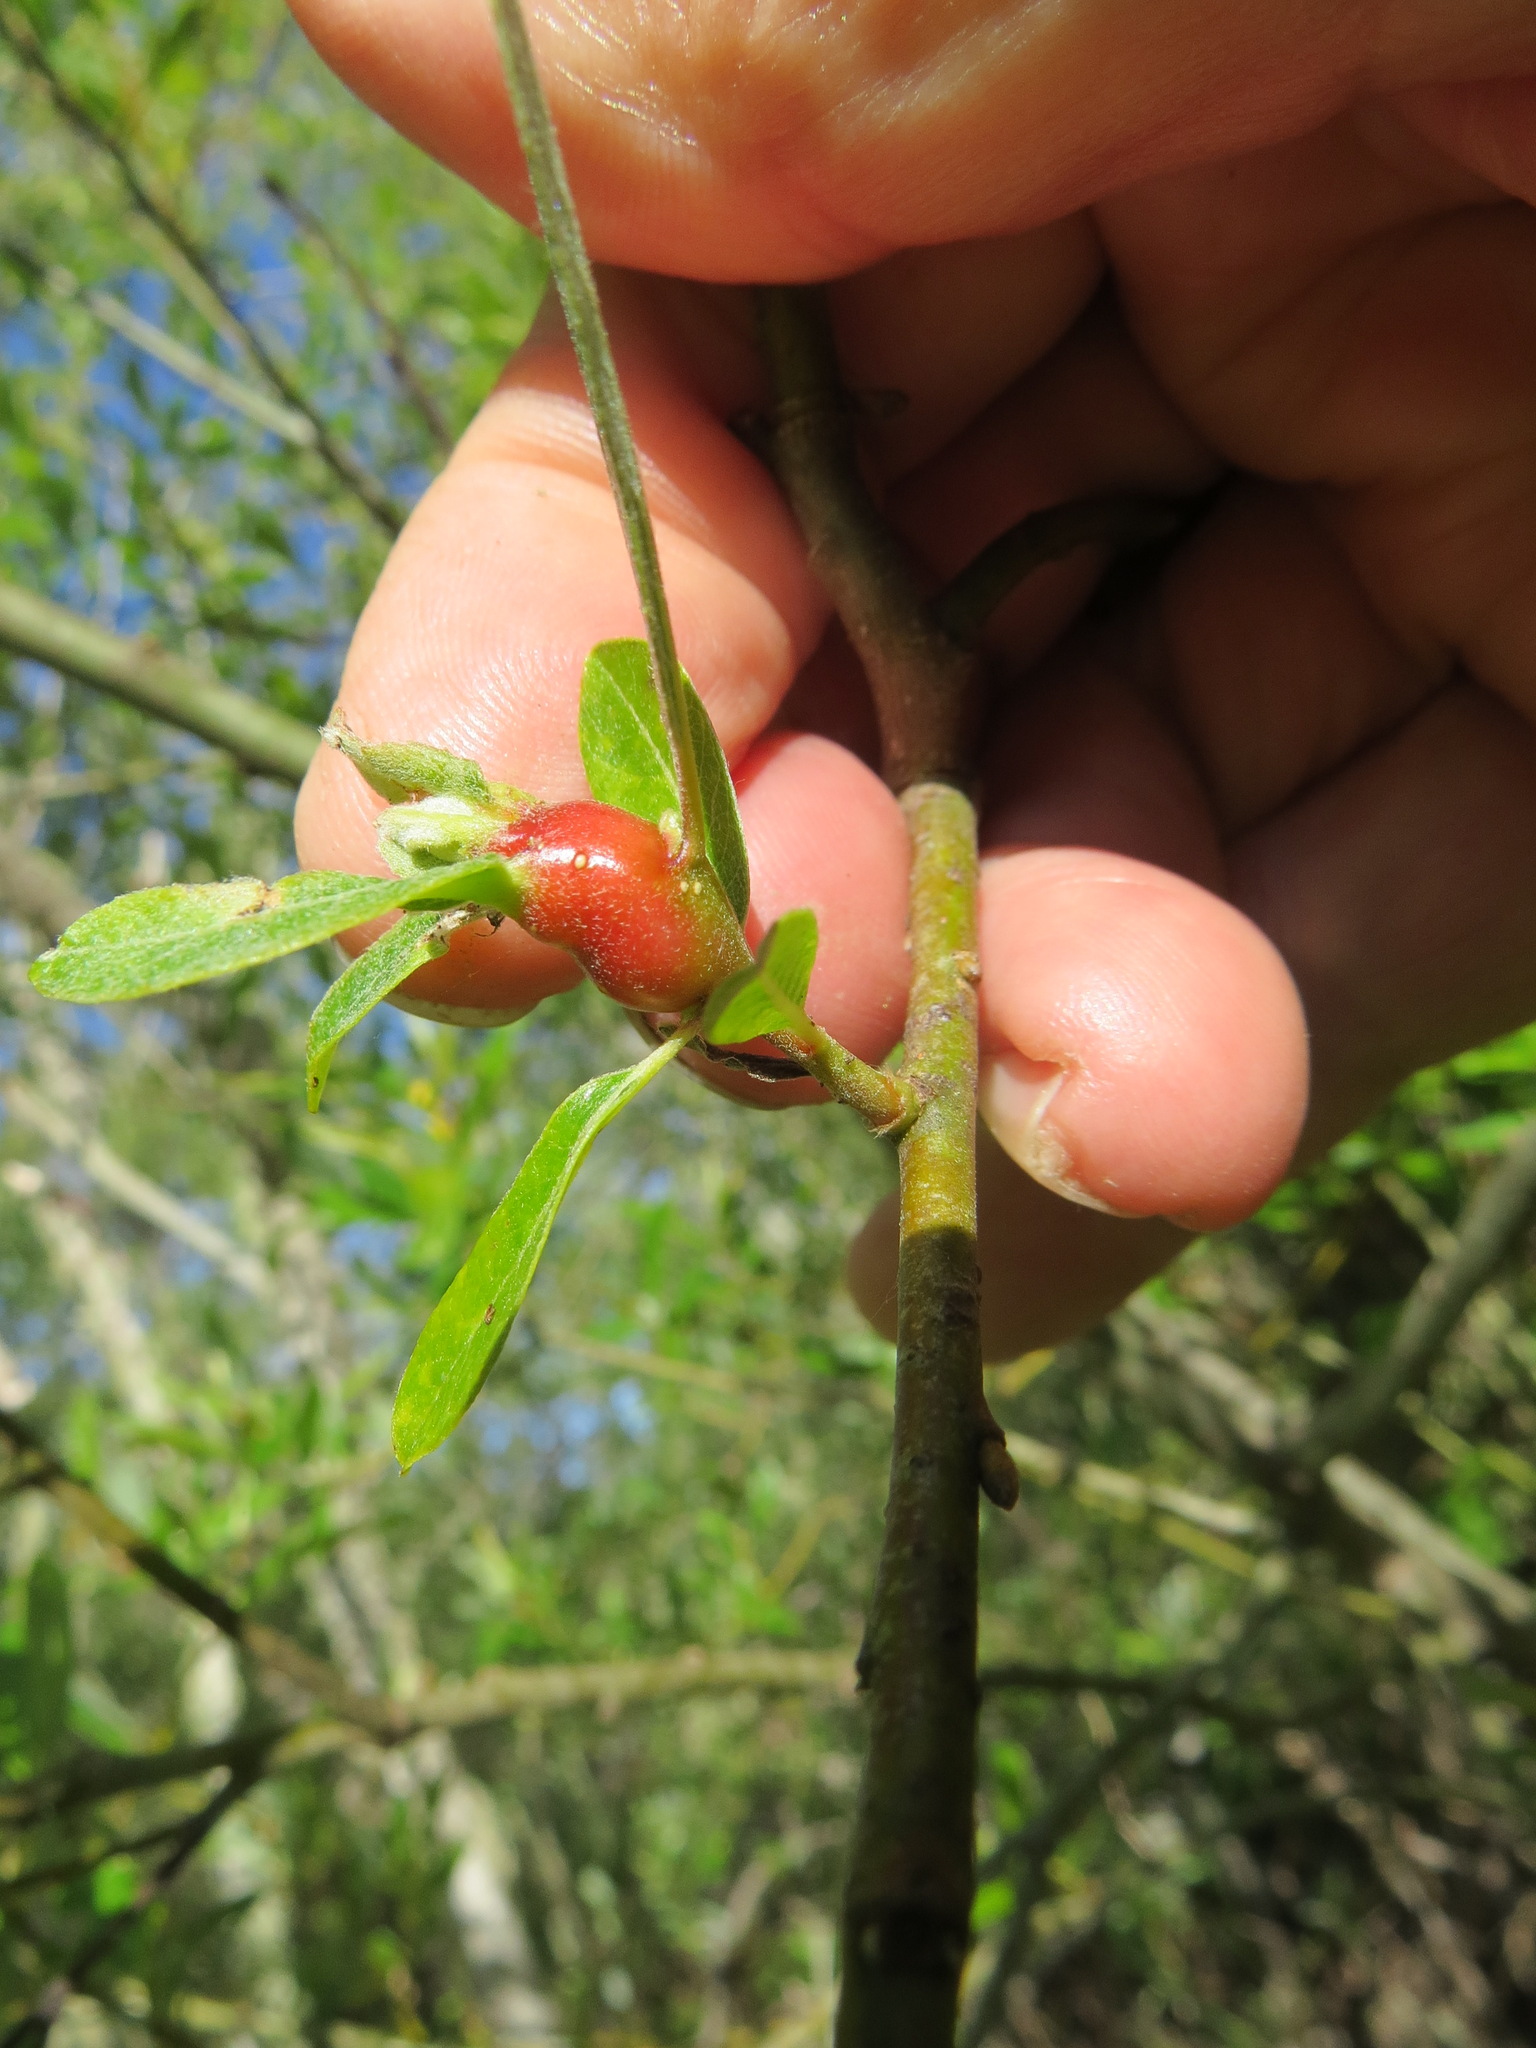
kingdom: Animalia
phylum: Arthropoda
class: Insecta
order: Diptera
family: Cecidomyiidae
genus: Rabdophaga
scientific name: Rabdophaga salicisbatatas
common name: Potato gall midge
